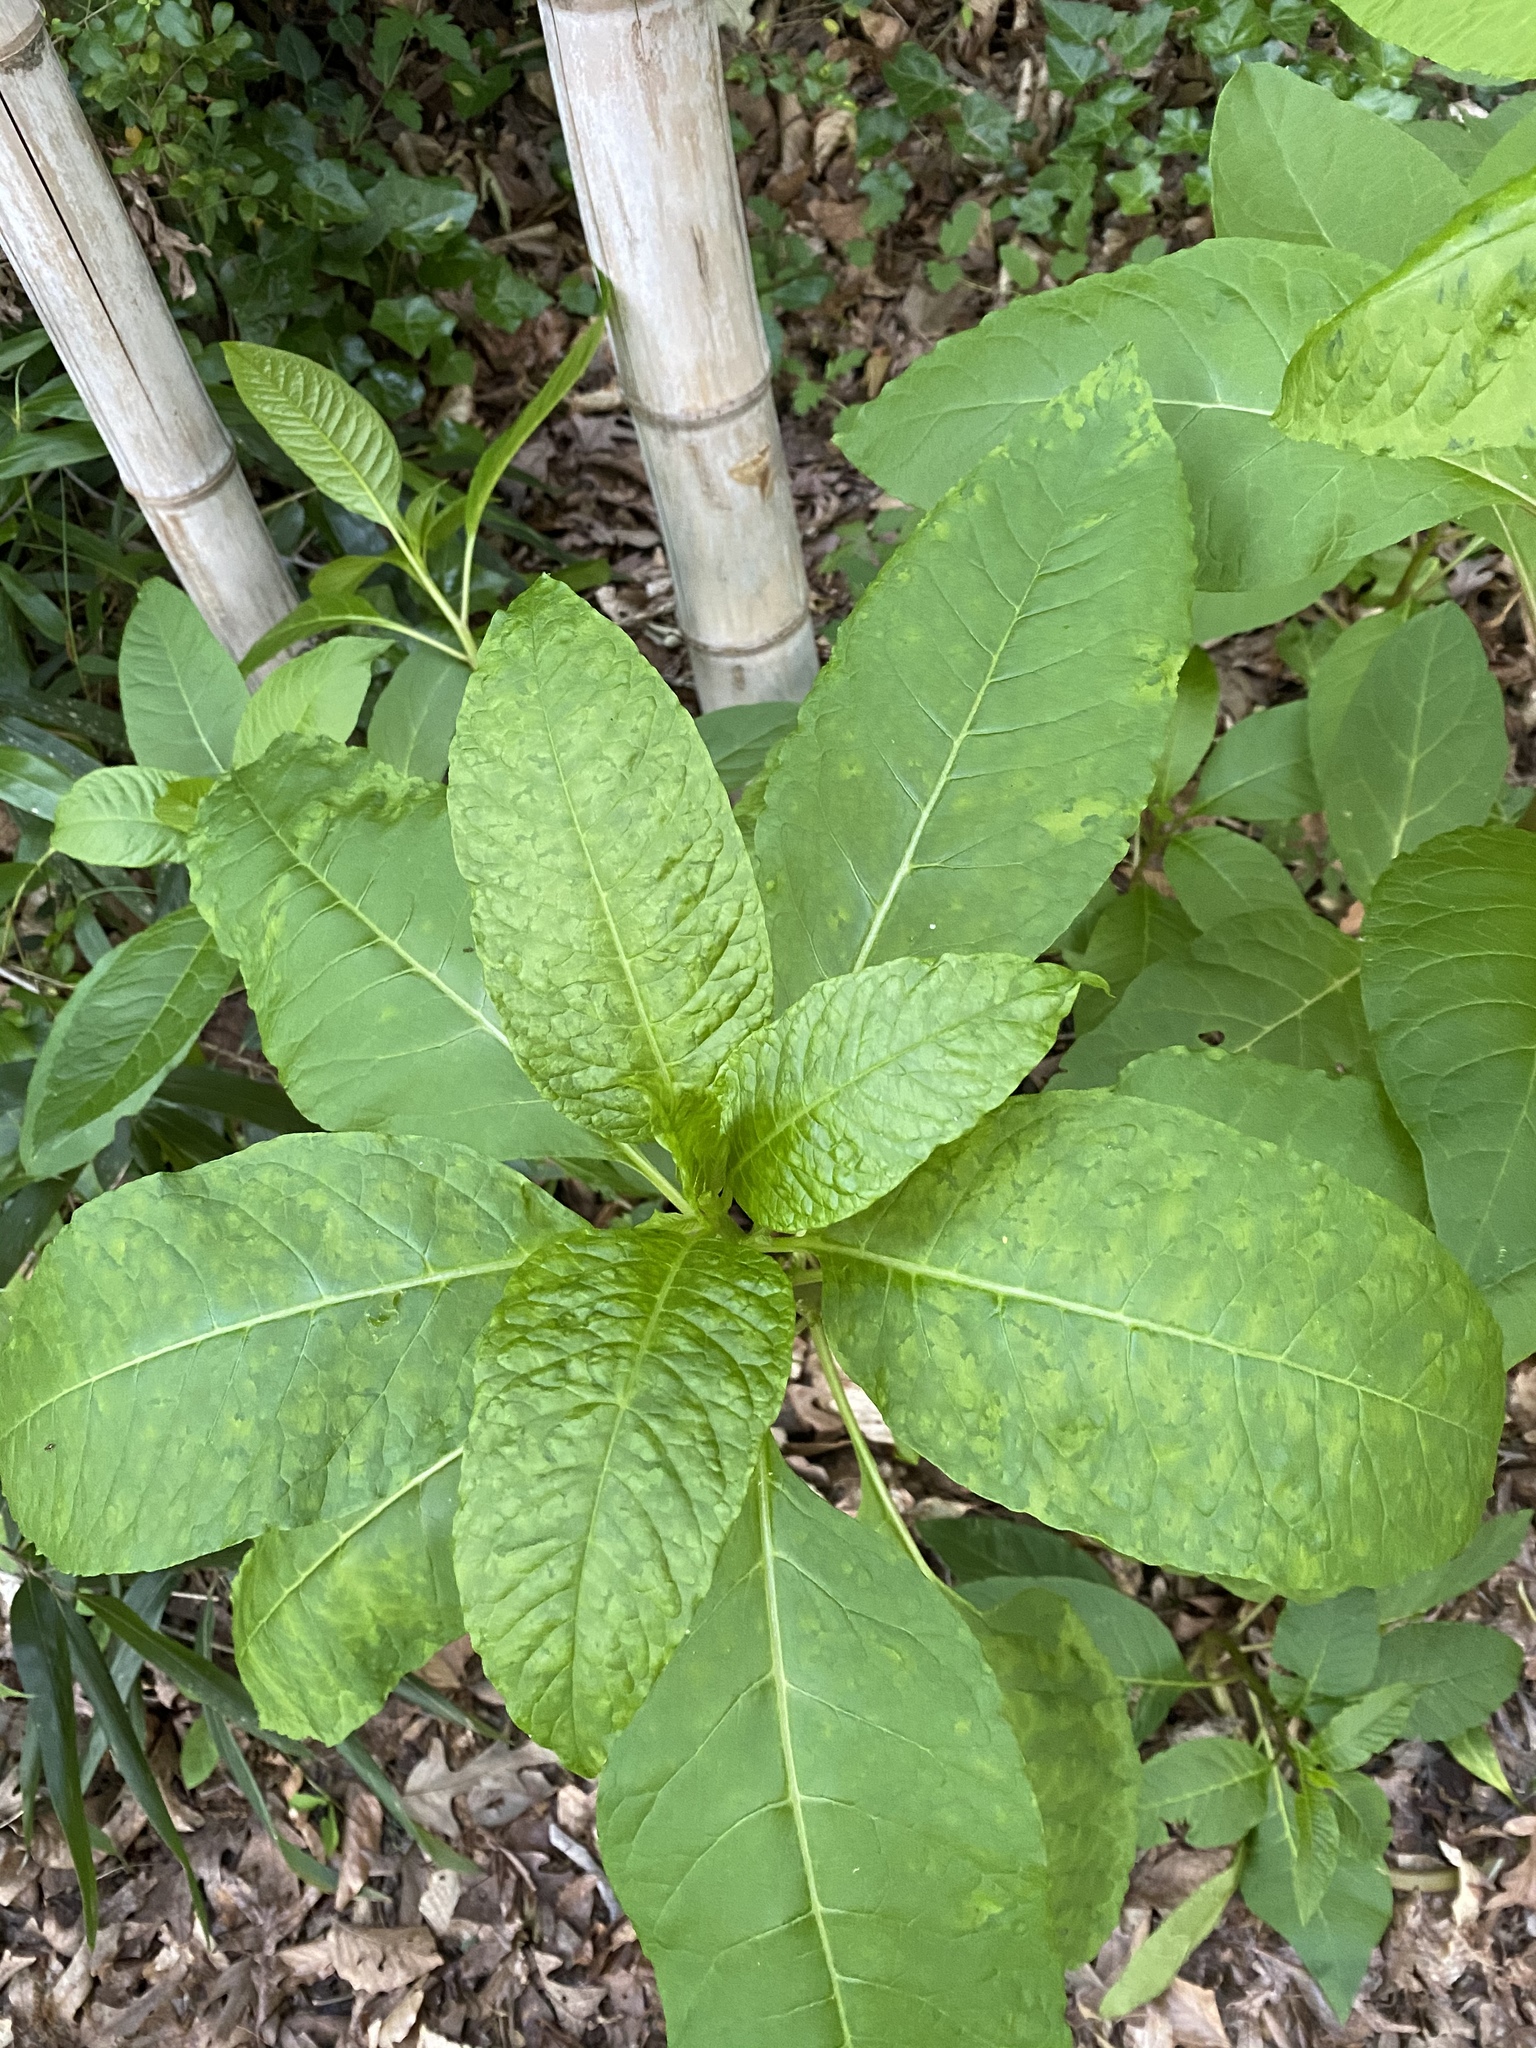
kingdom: Viruses
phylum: Pisuviricota
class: Stelpaviricetes
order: Patatavirales
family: Potyviridae
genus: Potyvirus
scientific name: Potyvirus Pokeweed mosaic virus
